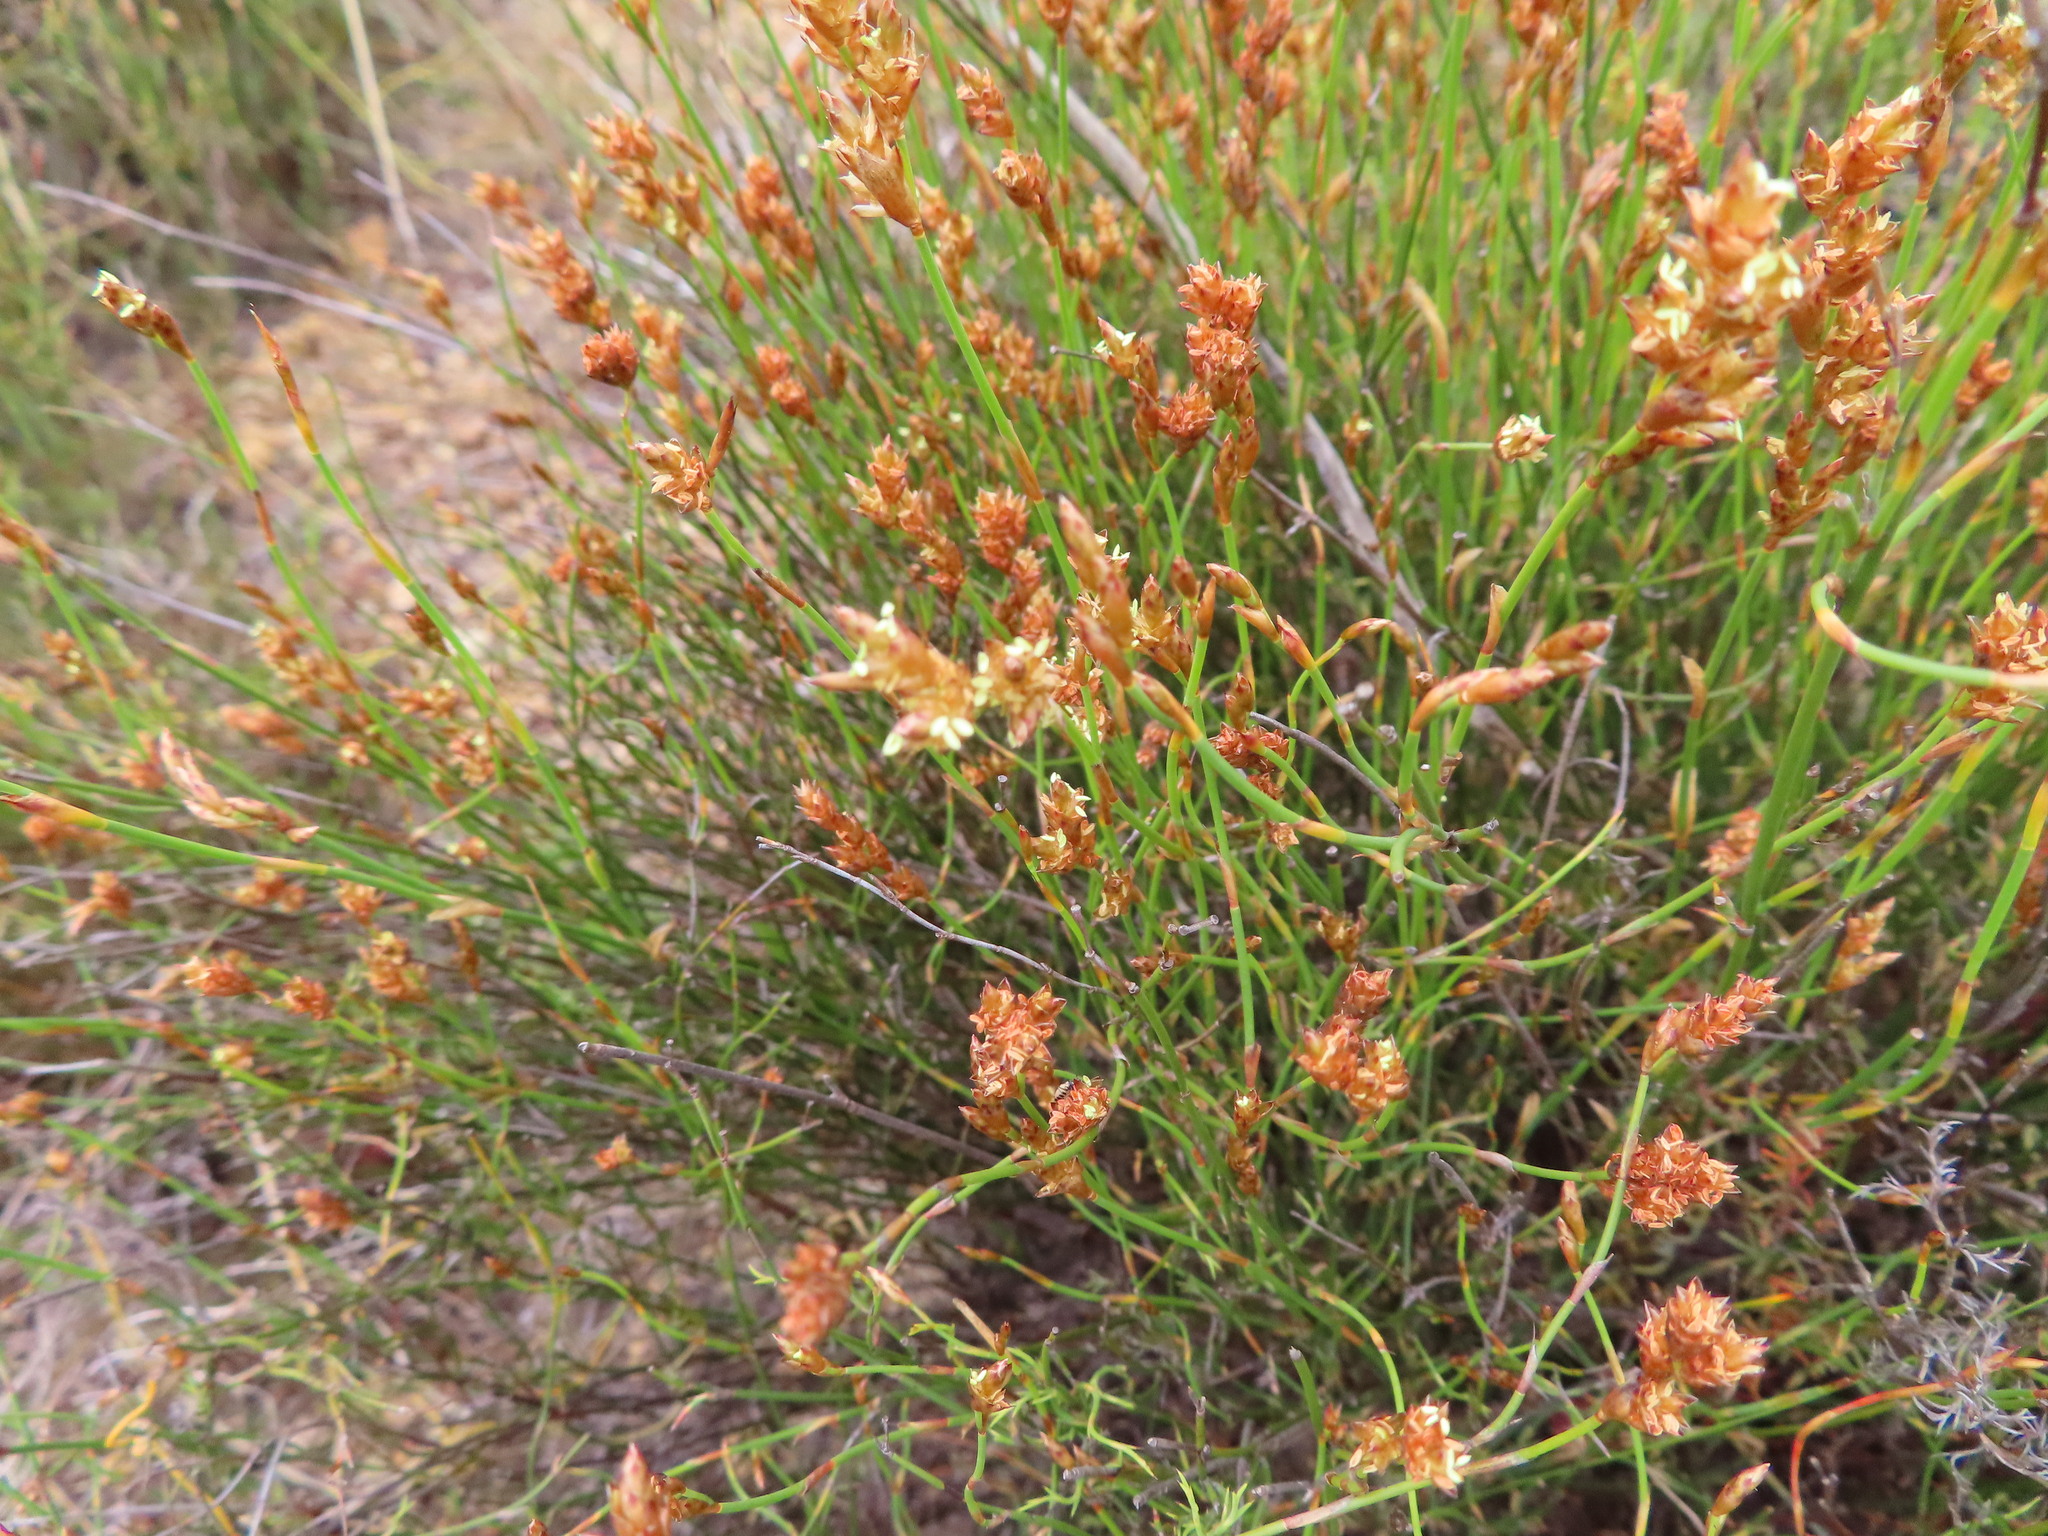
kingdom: Plantae
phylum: Tracheophyta
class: Liliopsida
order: Poales
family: Restionaceae
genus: Restio
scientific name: Restio vimineus
